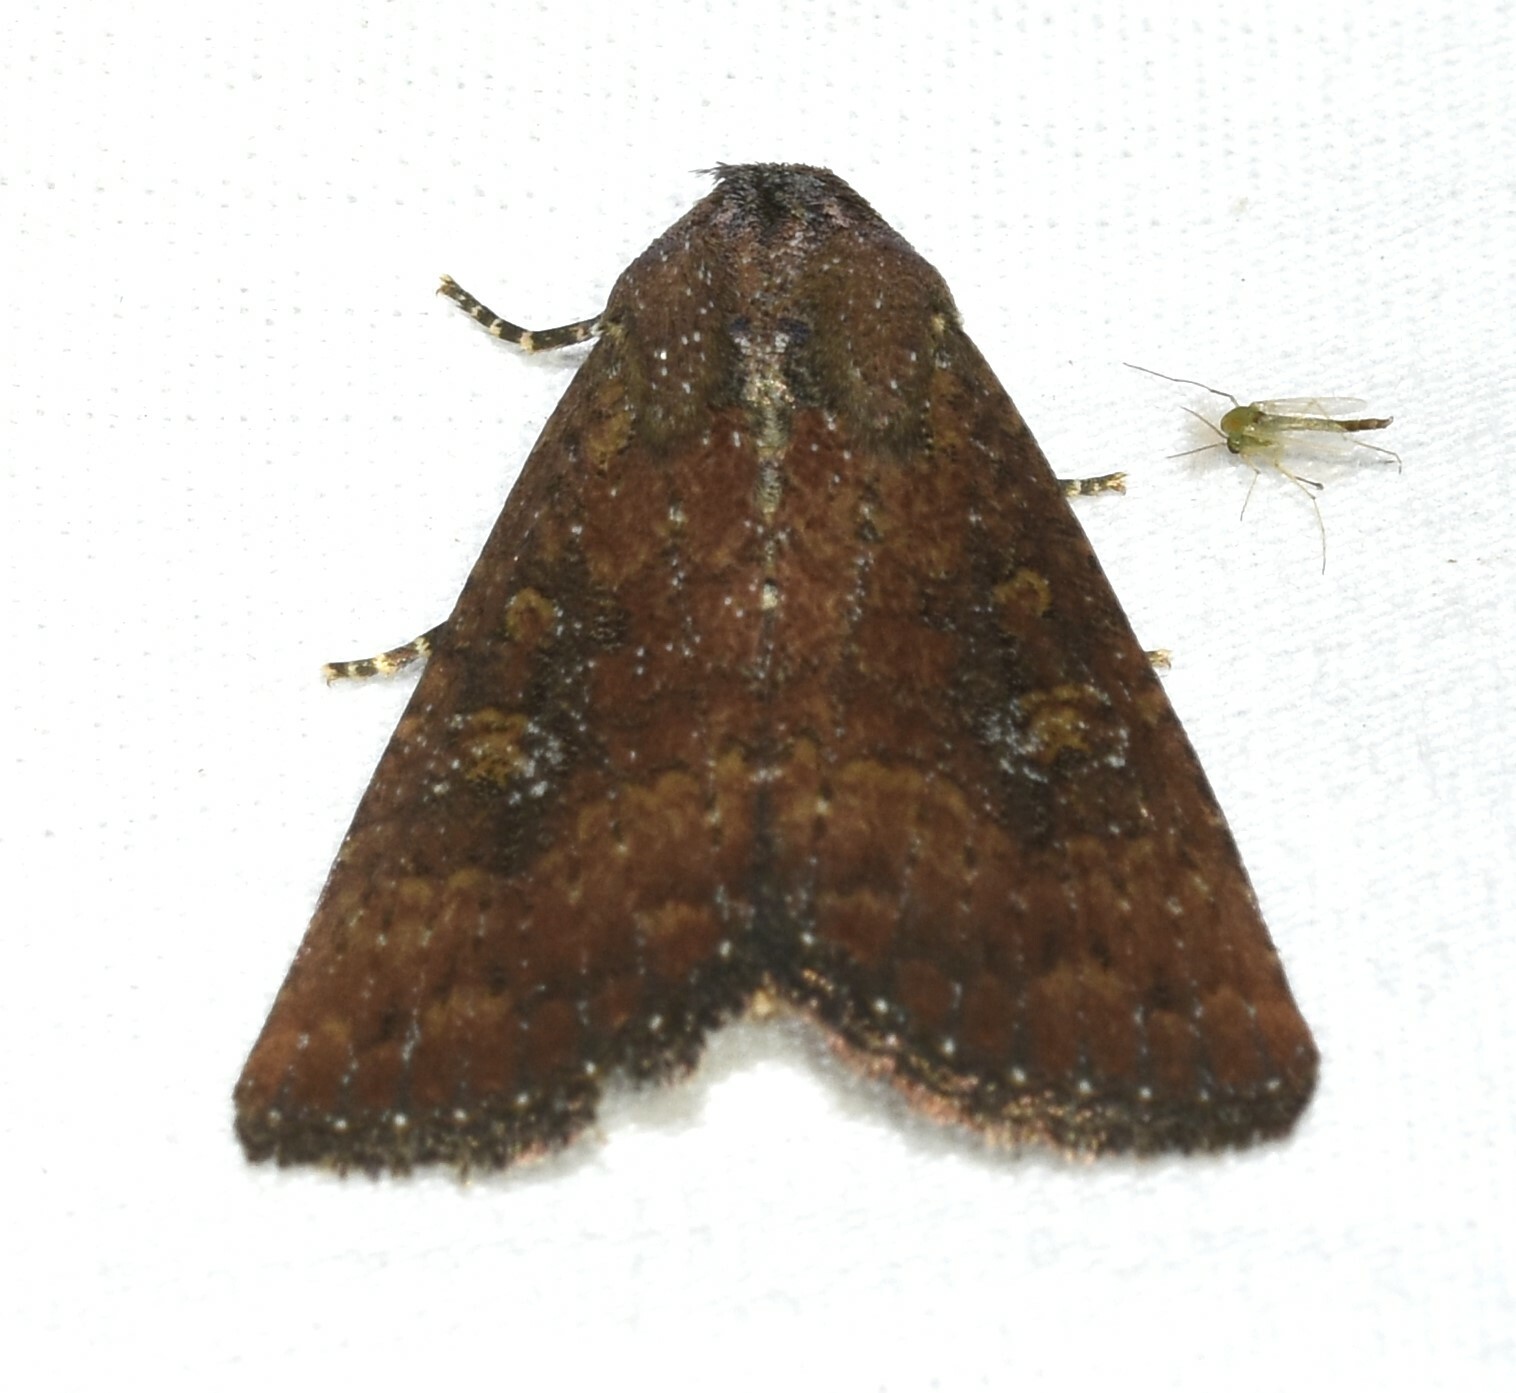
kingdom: Animalia
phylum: Arthropoda
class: Insecta
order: Lepidoptera
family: Noctuidae
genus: Condica
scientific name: Condica sutor
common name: Cobbler moth
